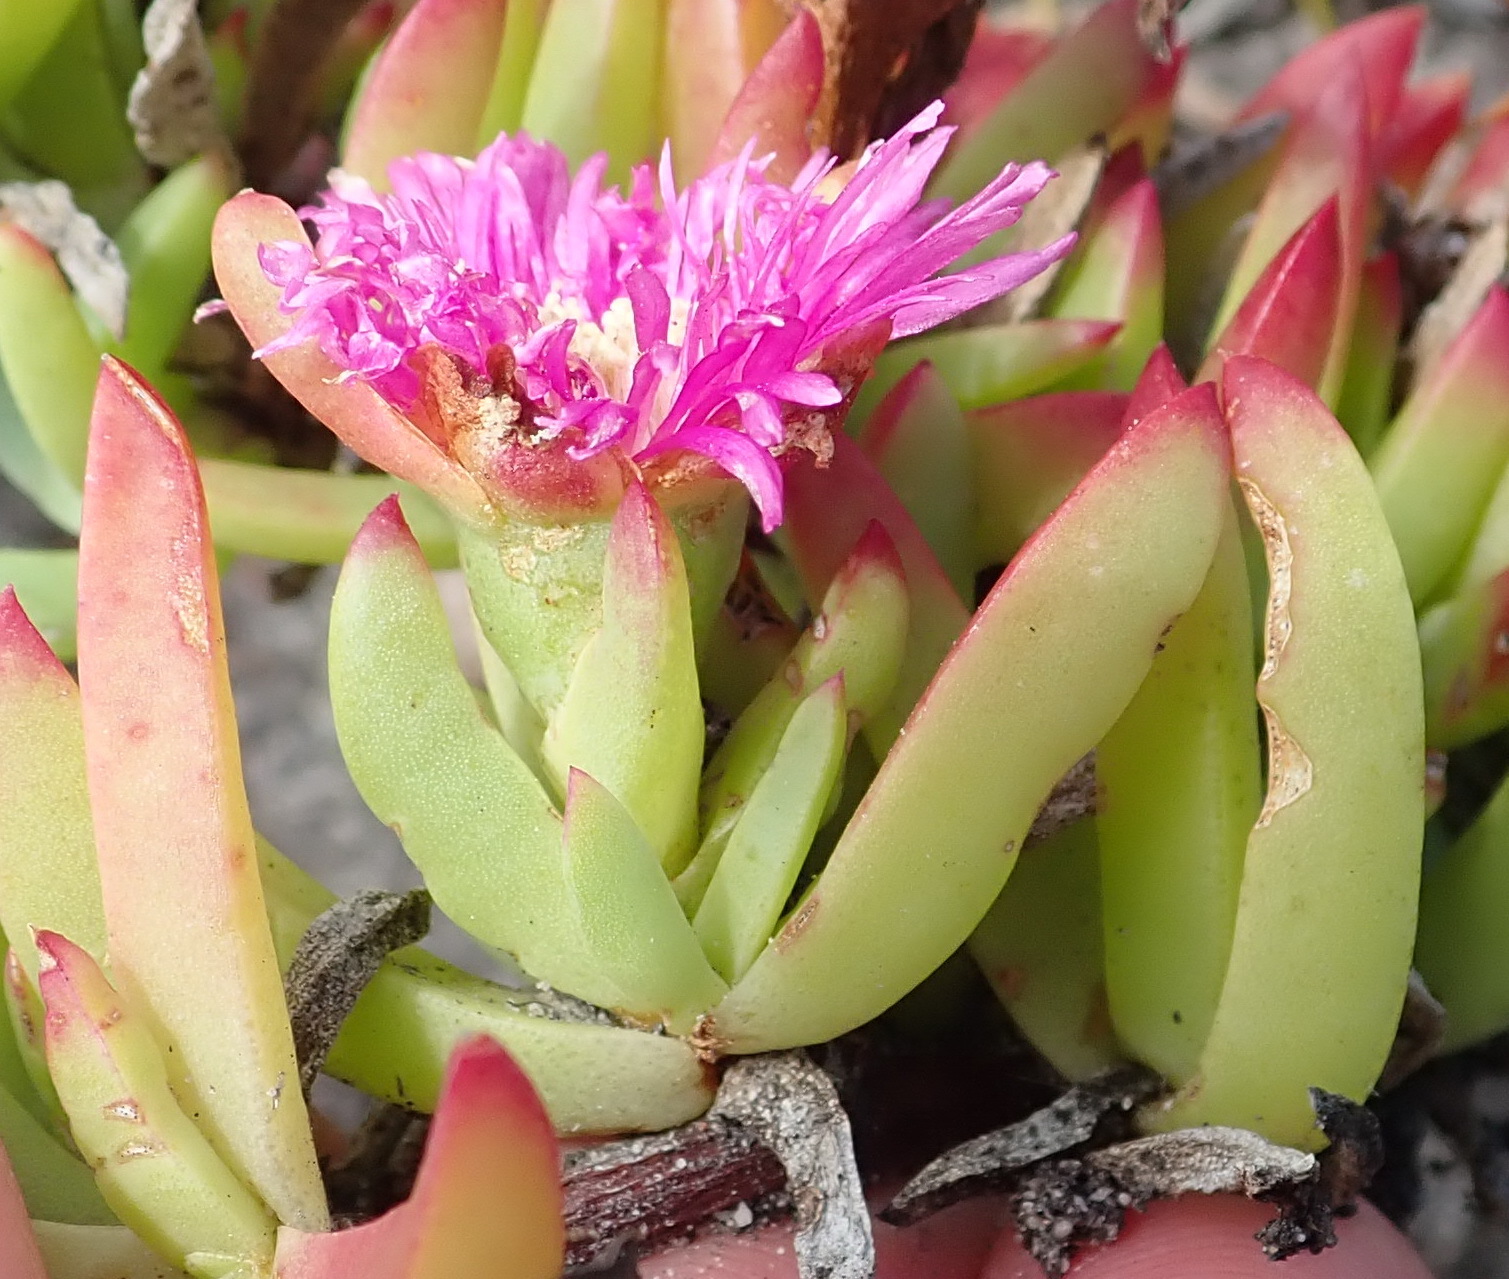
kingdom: Plantae
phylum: Tracheophyta
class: Magnoliopsida
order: Caryophyllales
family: Aizoaceae
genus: Lampranthus
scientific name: Lampranthus spectabilis
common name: Trailing iceplant
